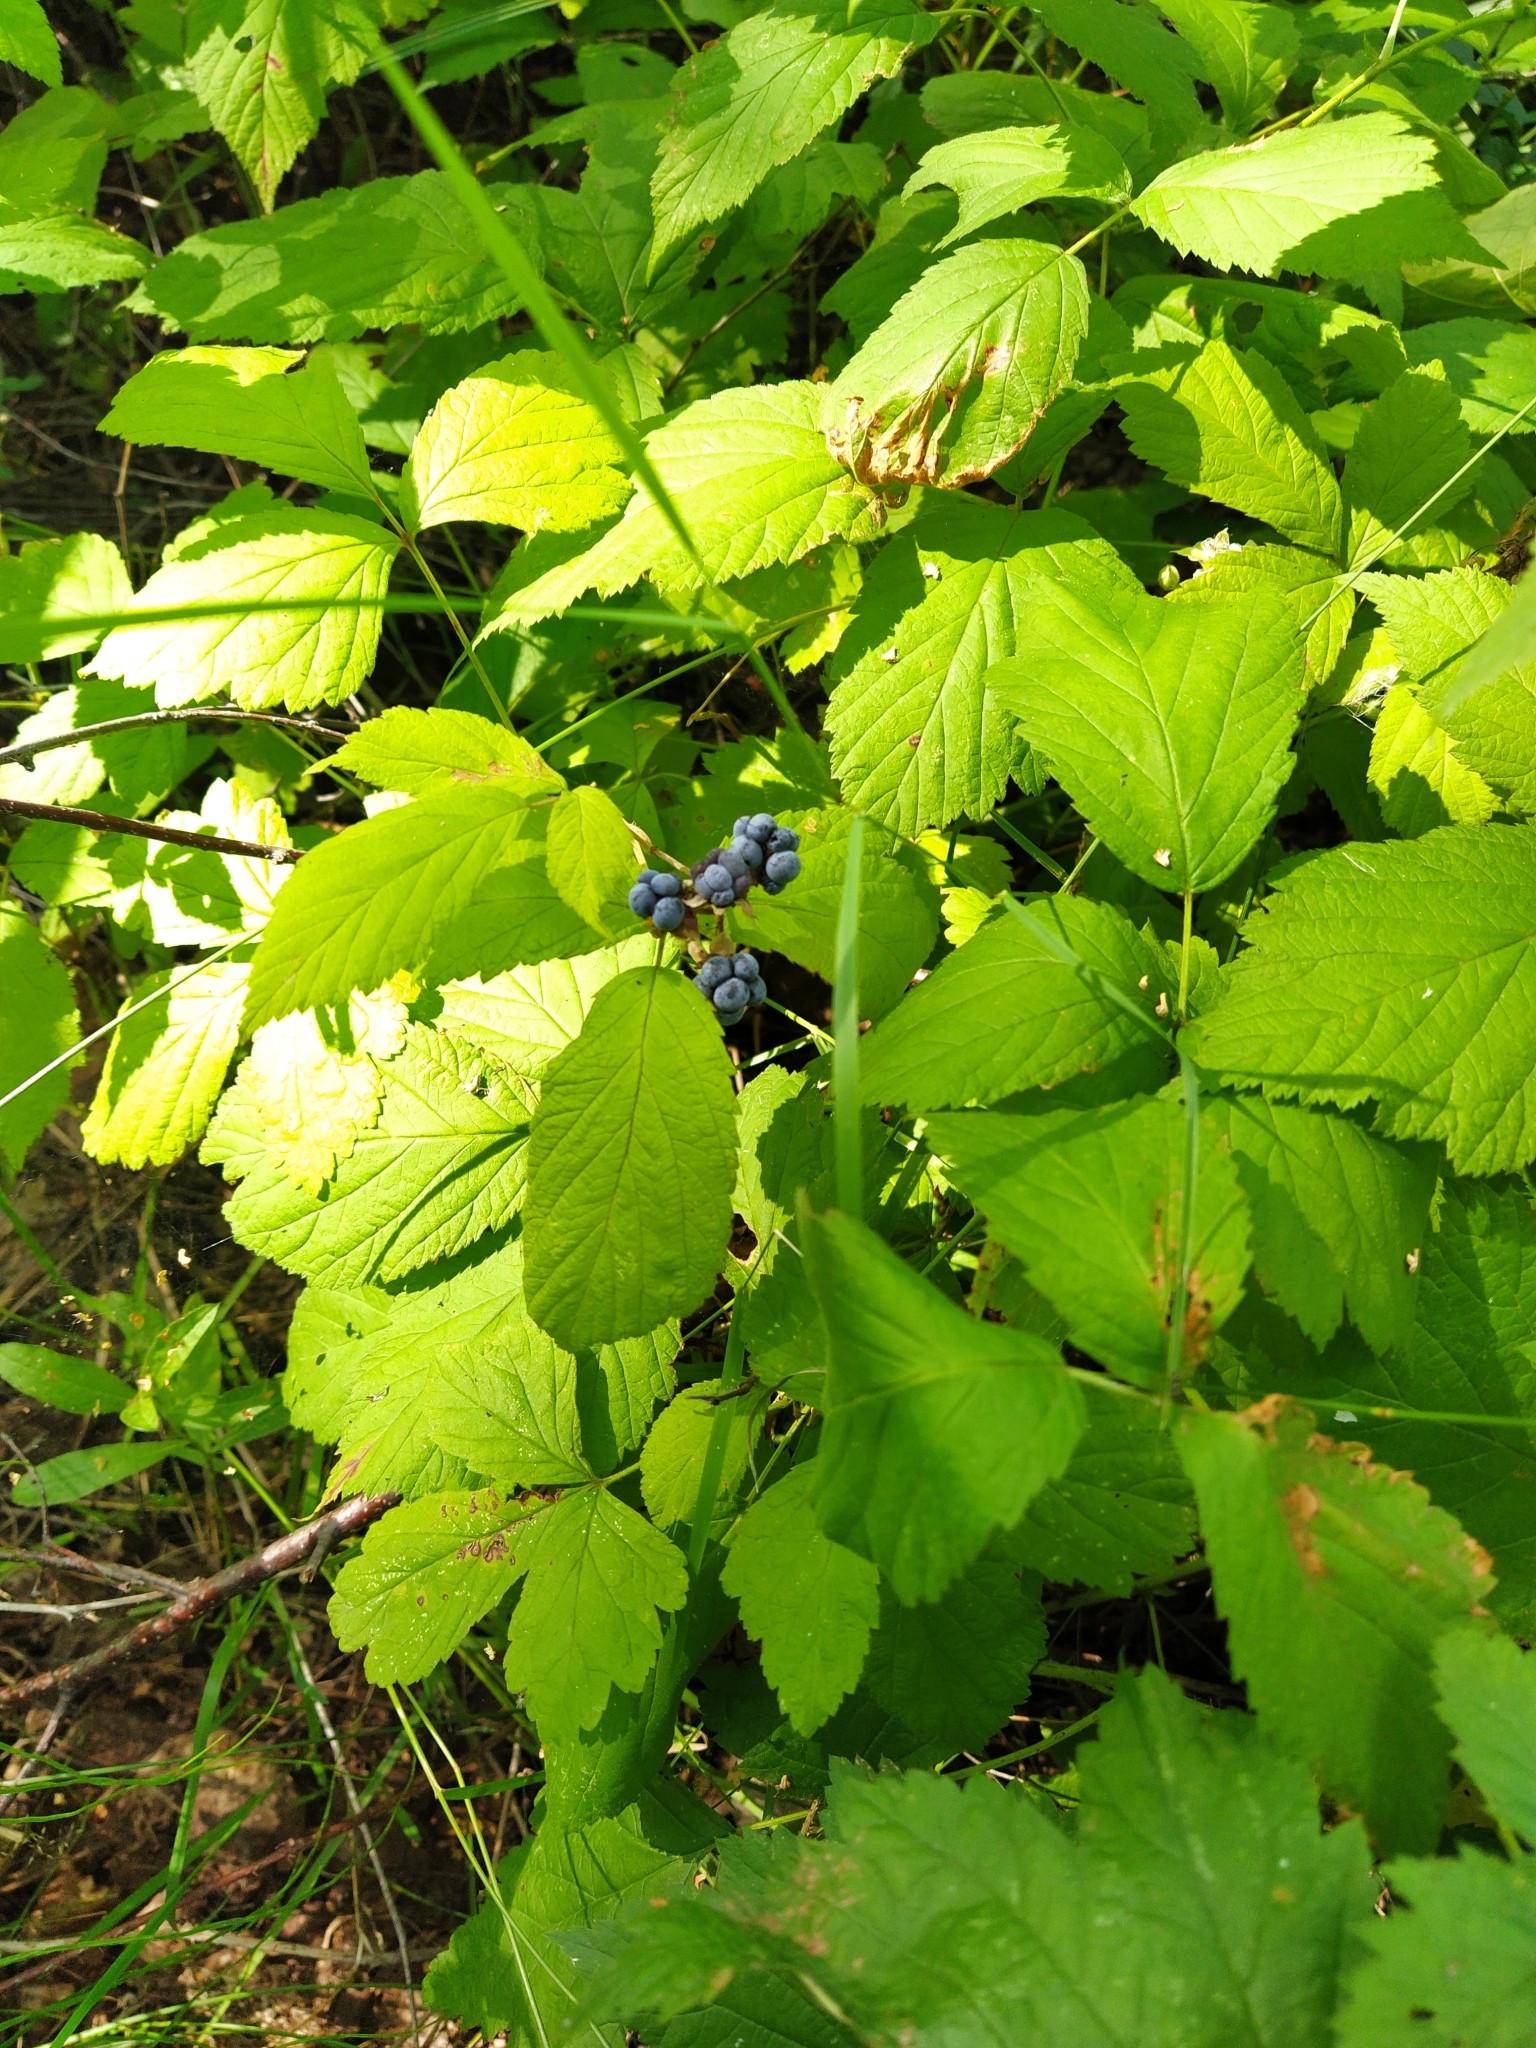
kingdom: Plantae
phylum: Tracheophyta
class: Magnoliopsida
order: Rosales
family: Rosaceae
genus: Rubus
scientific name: Rubus caesius
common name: Dewberry
